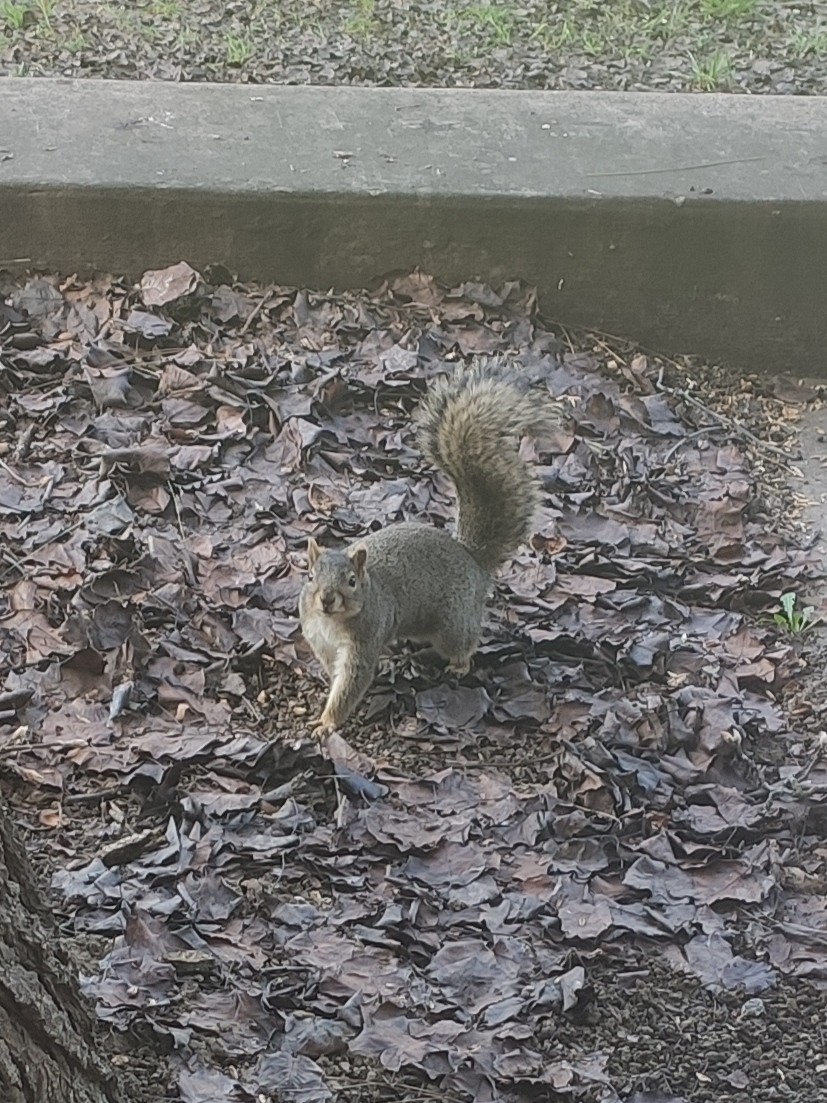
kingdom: Animalia
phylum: Chordata
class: Mammalia
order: Rodentia
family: Sciuridae
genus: Sciurus
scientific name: Sciurus niger
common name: Fox squirrel
